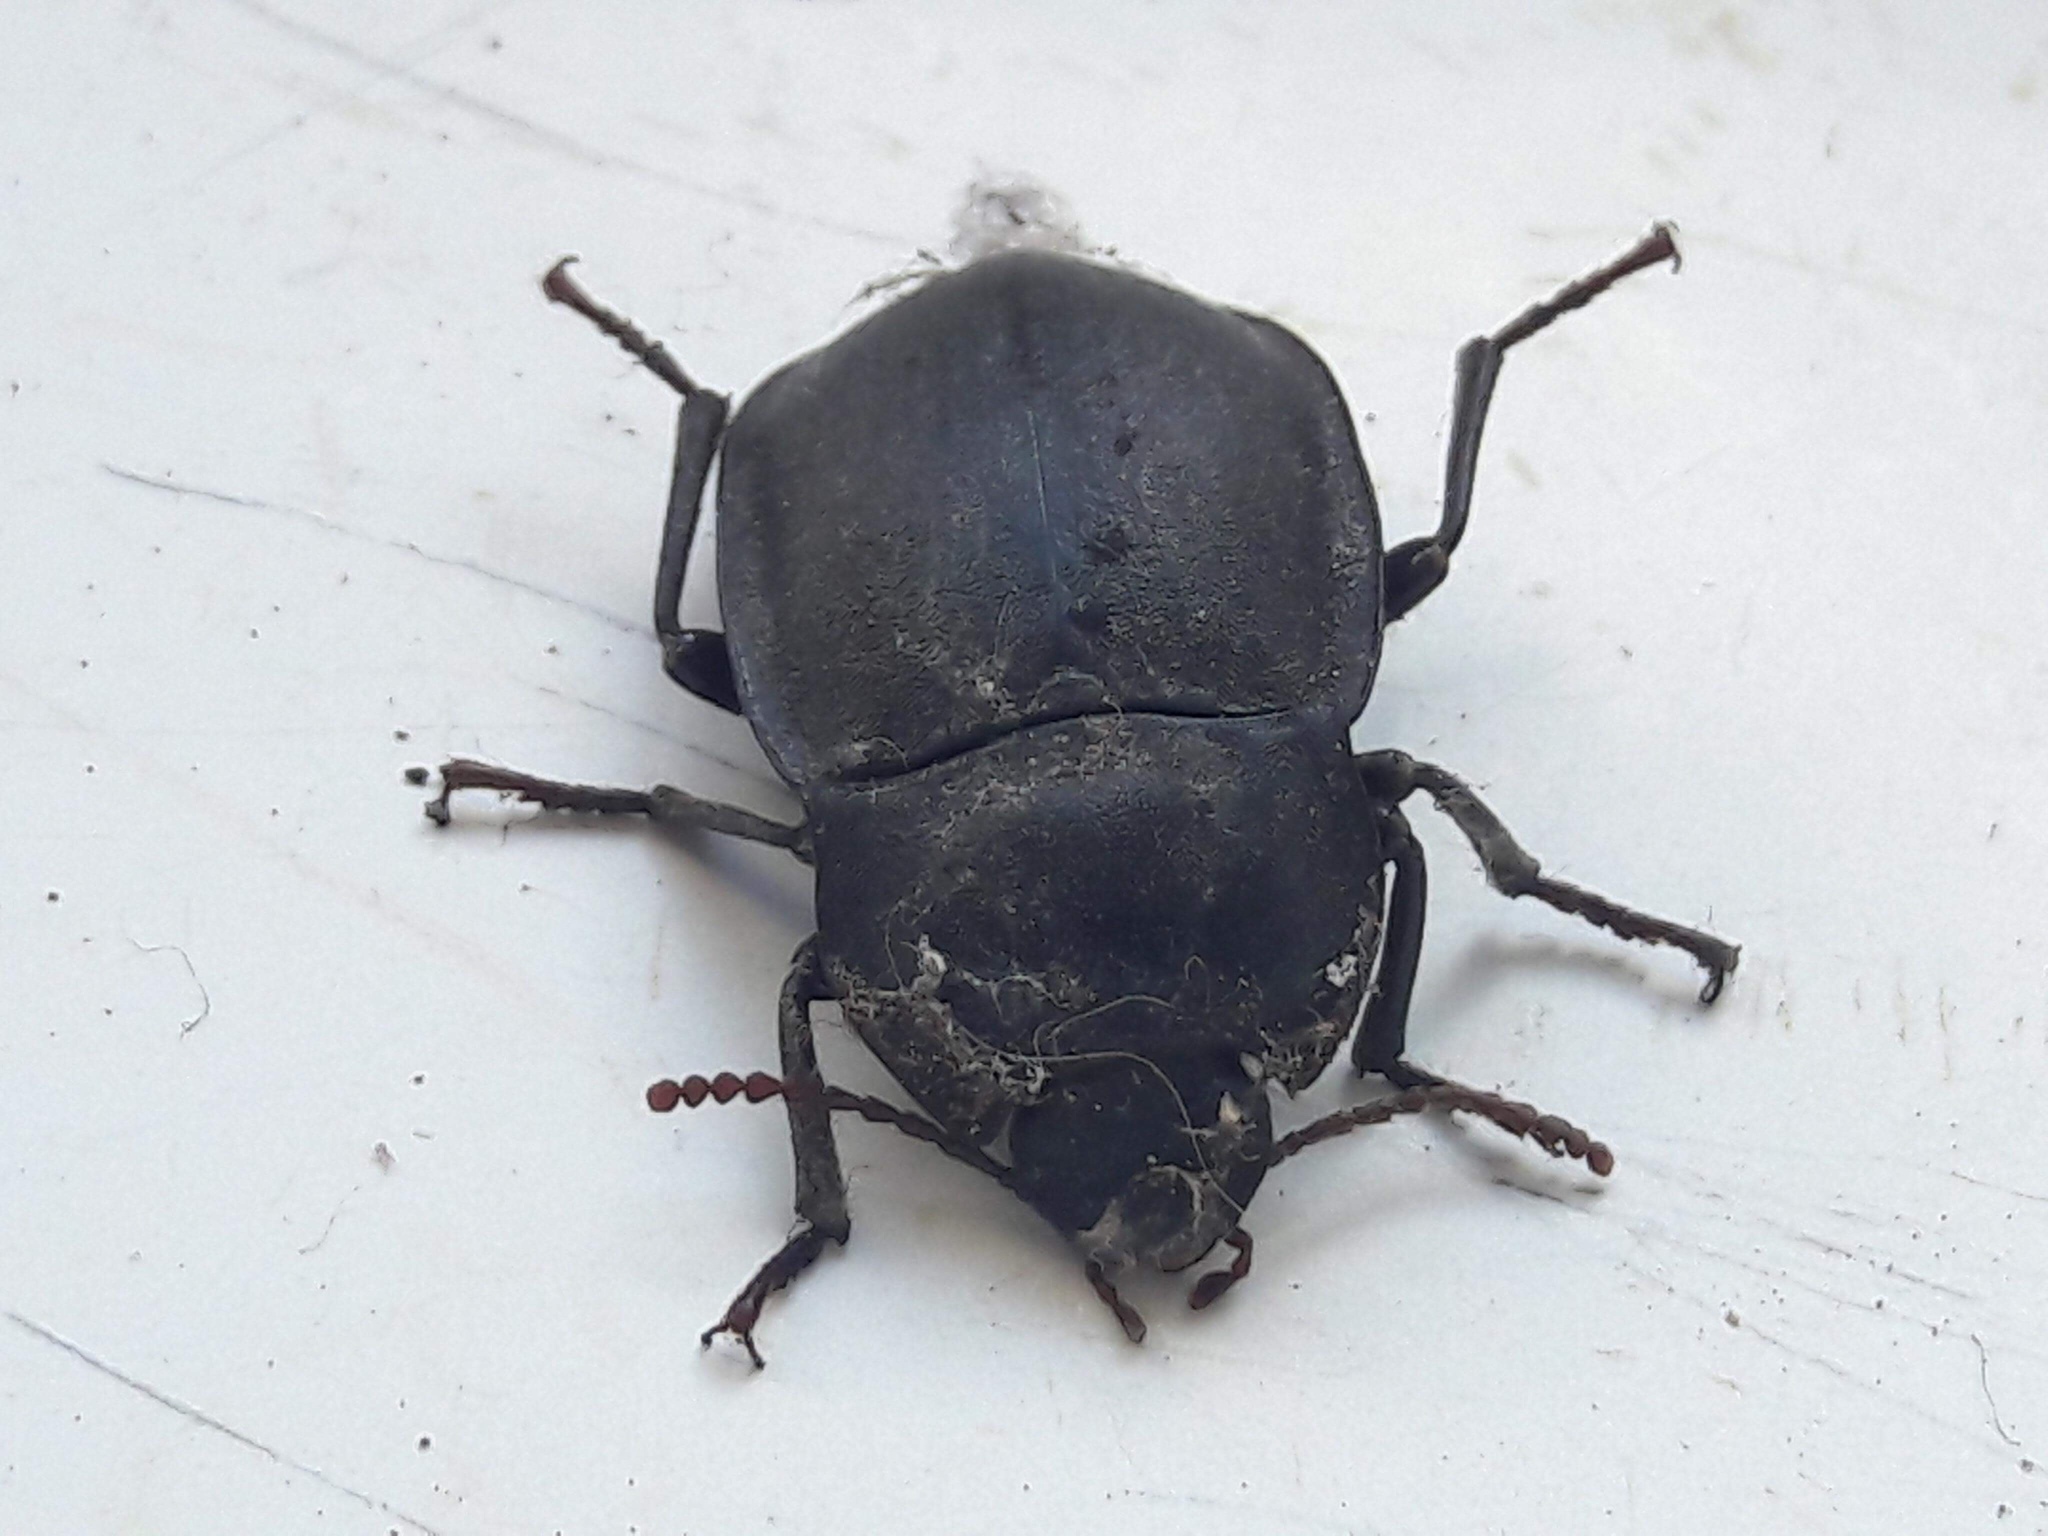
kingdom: Animalia
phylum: Arthropoda
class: Insecta
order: Coleoptera
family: Tenebrionidae
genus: Mimopeus
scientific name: Mimopeus
